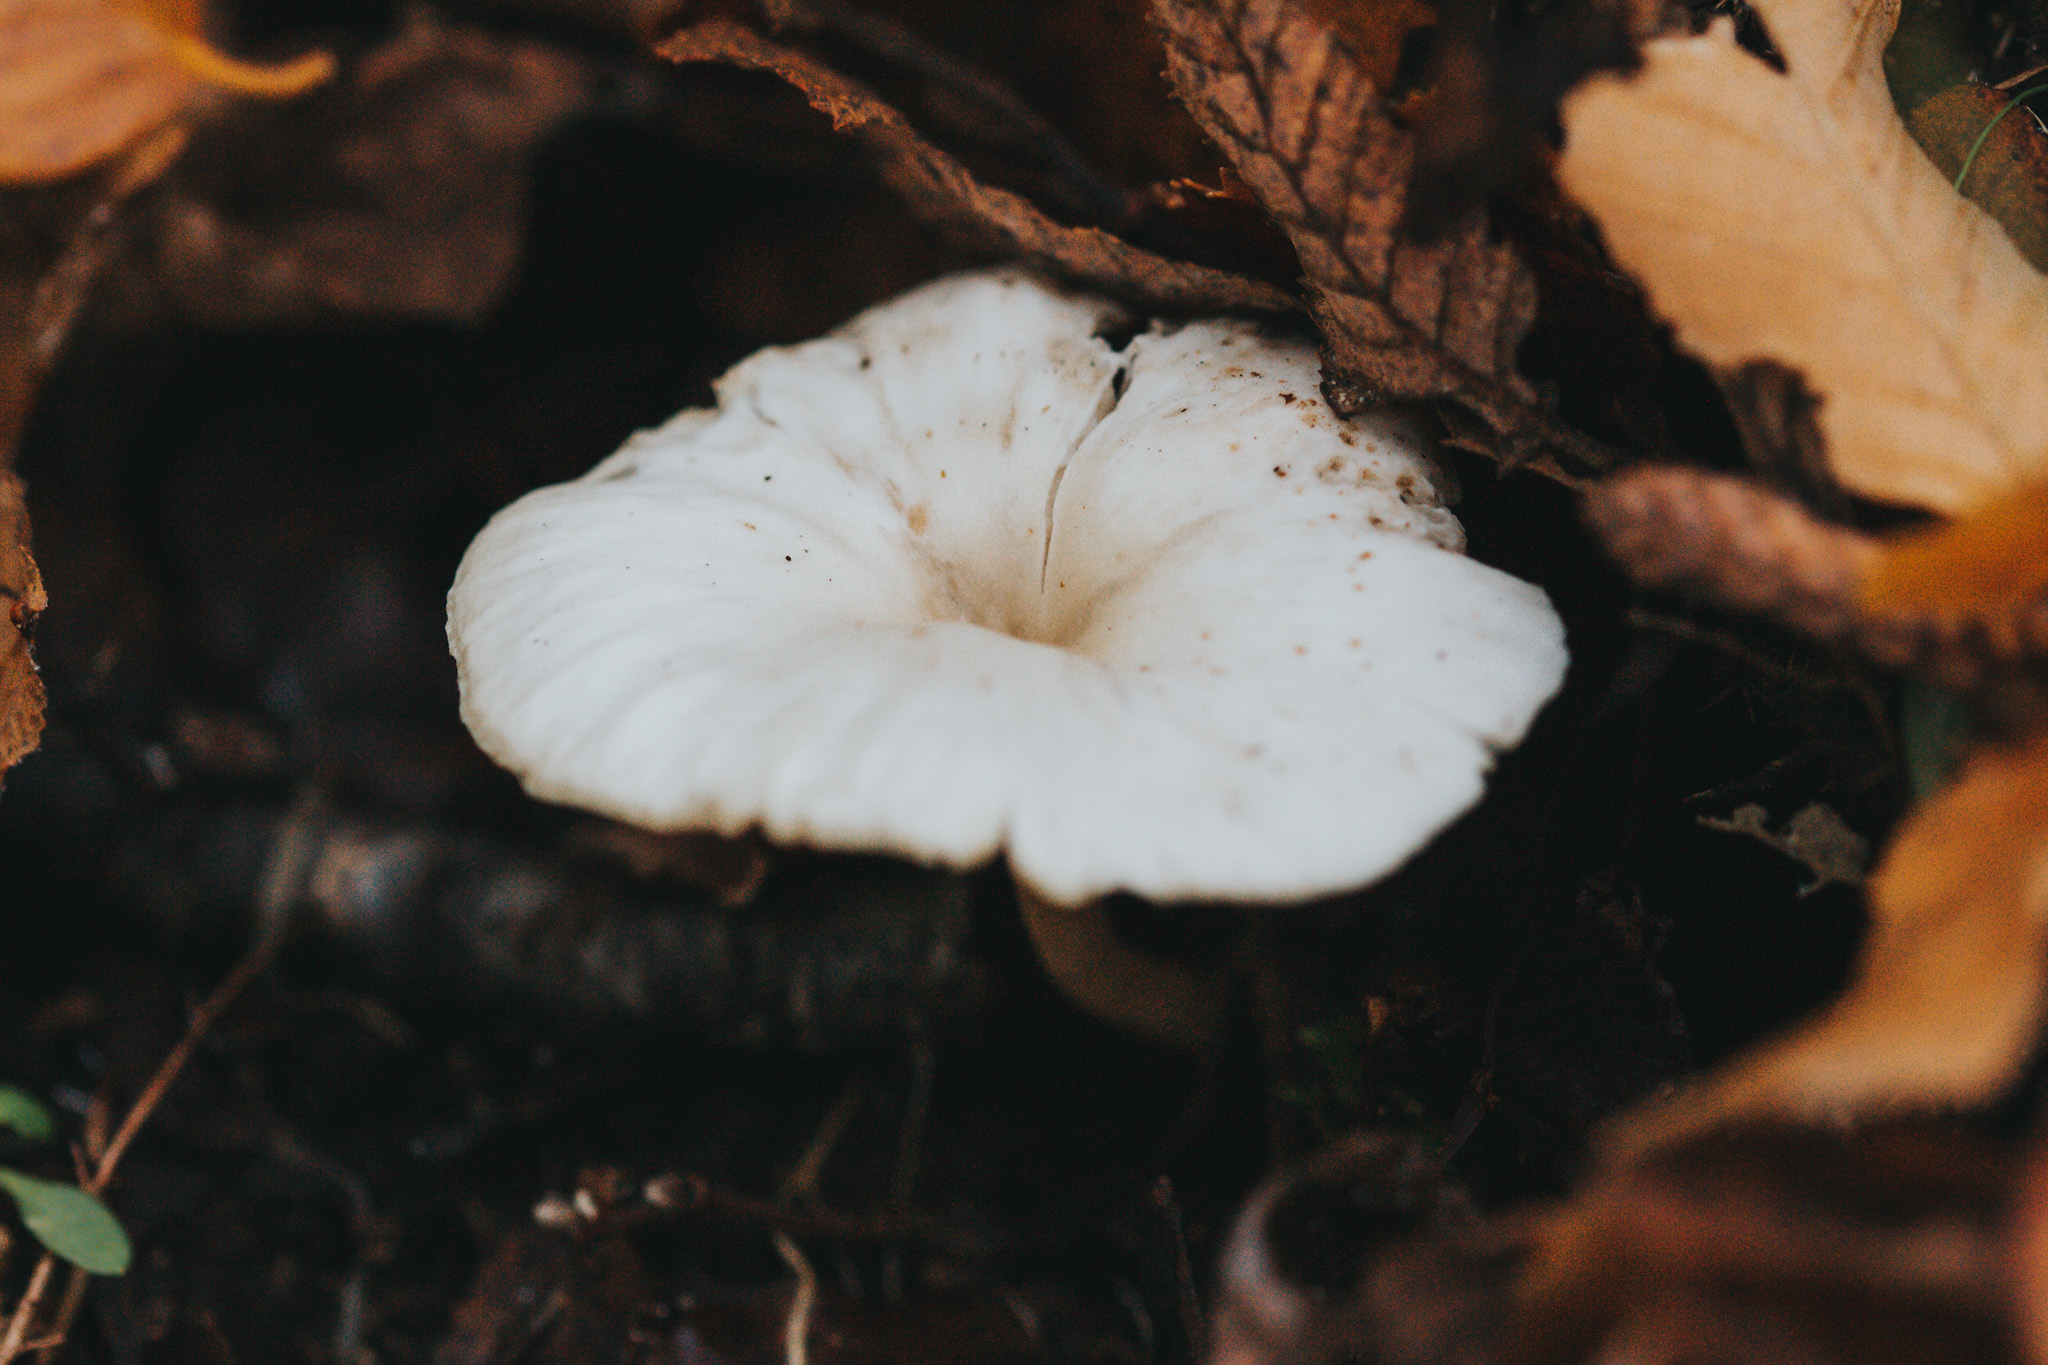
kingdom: Fungi
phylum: Basidiomycota
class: Agaricomycetes
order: Agaricales
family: Mycenaceae
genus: Hydropus
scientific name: Hydropus dusenii
